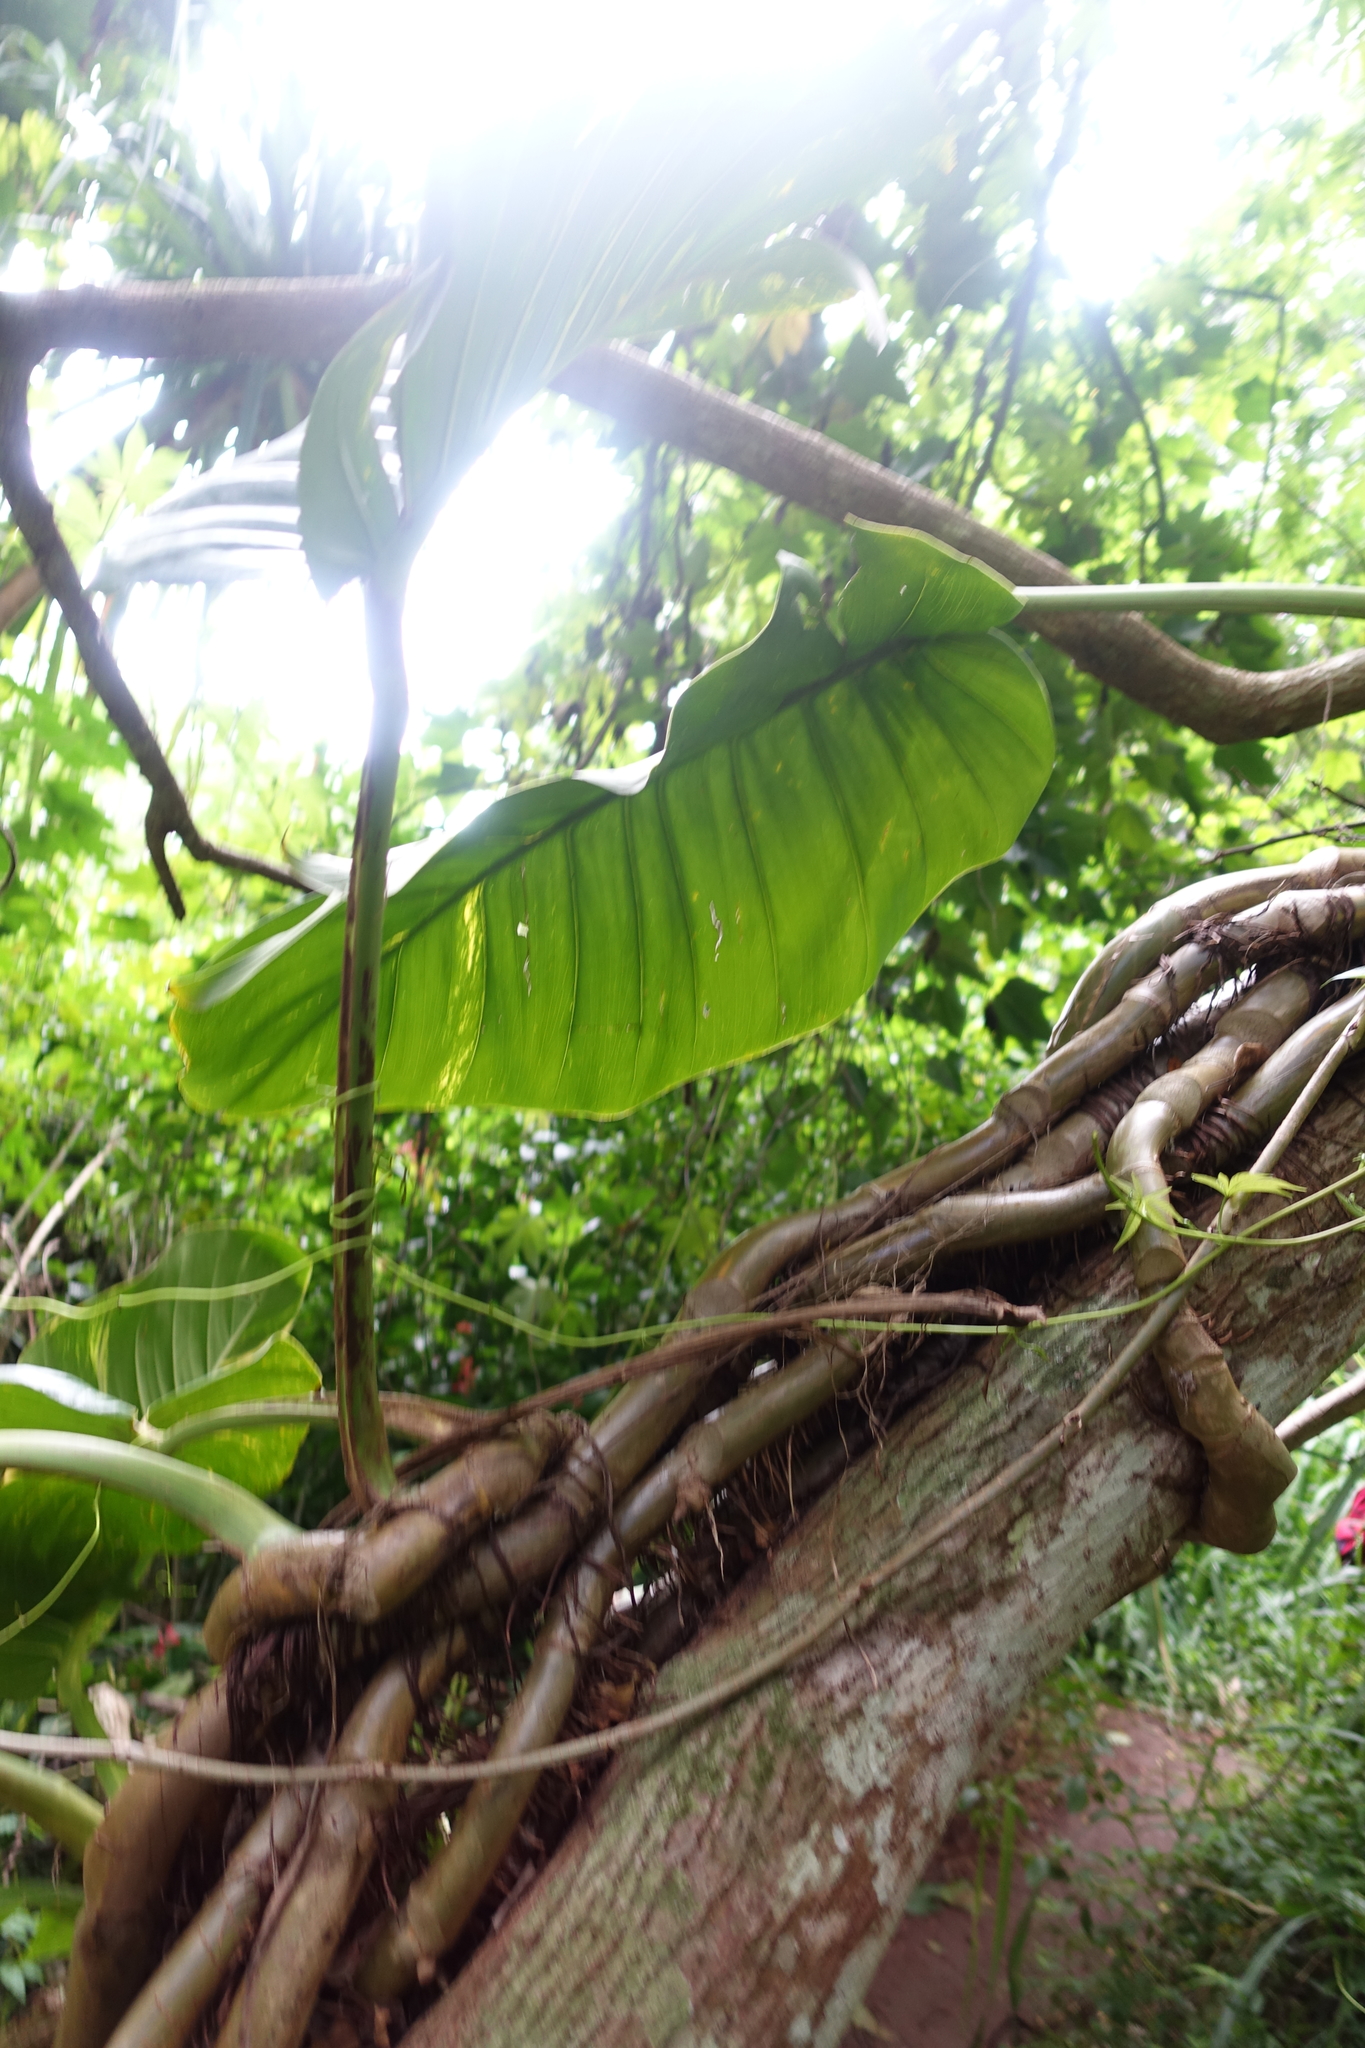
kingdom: Plantae
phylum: Tracheophyta
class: Liliopsida
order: Alismatales
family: Araceae
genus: Epipremnum
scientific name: Epipremnum aureum
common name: Golden hunter's-robe
